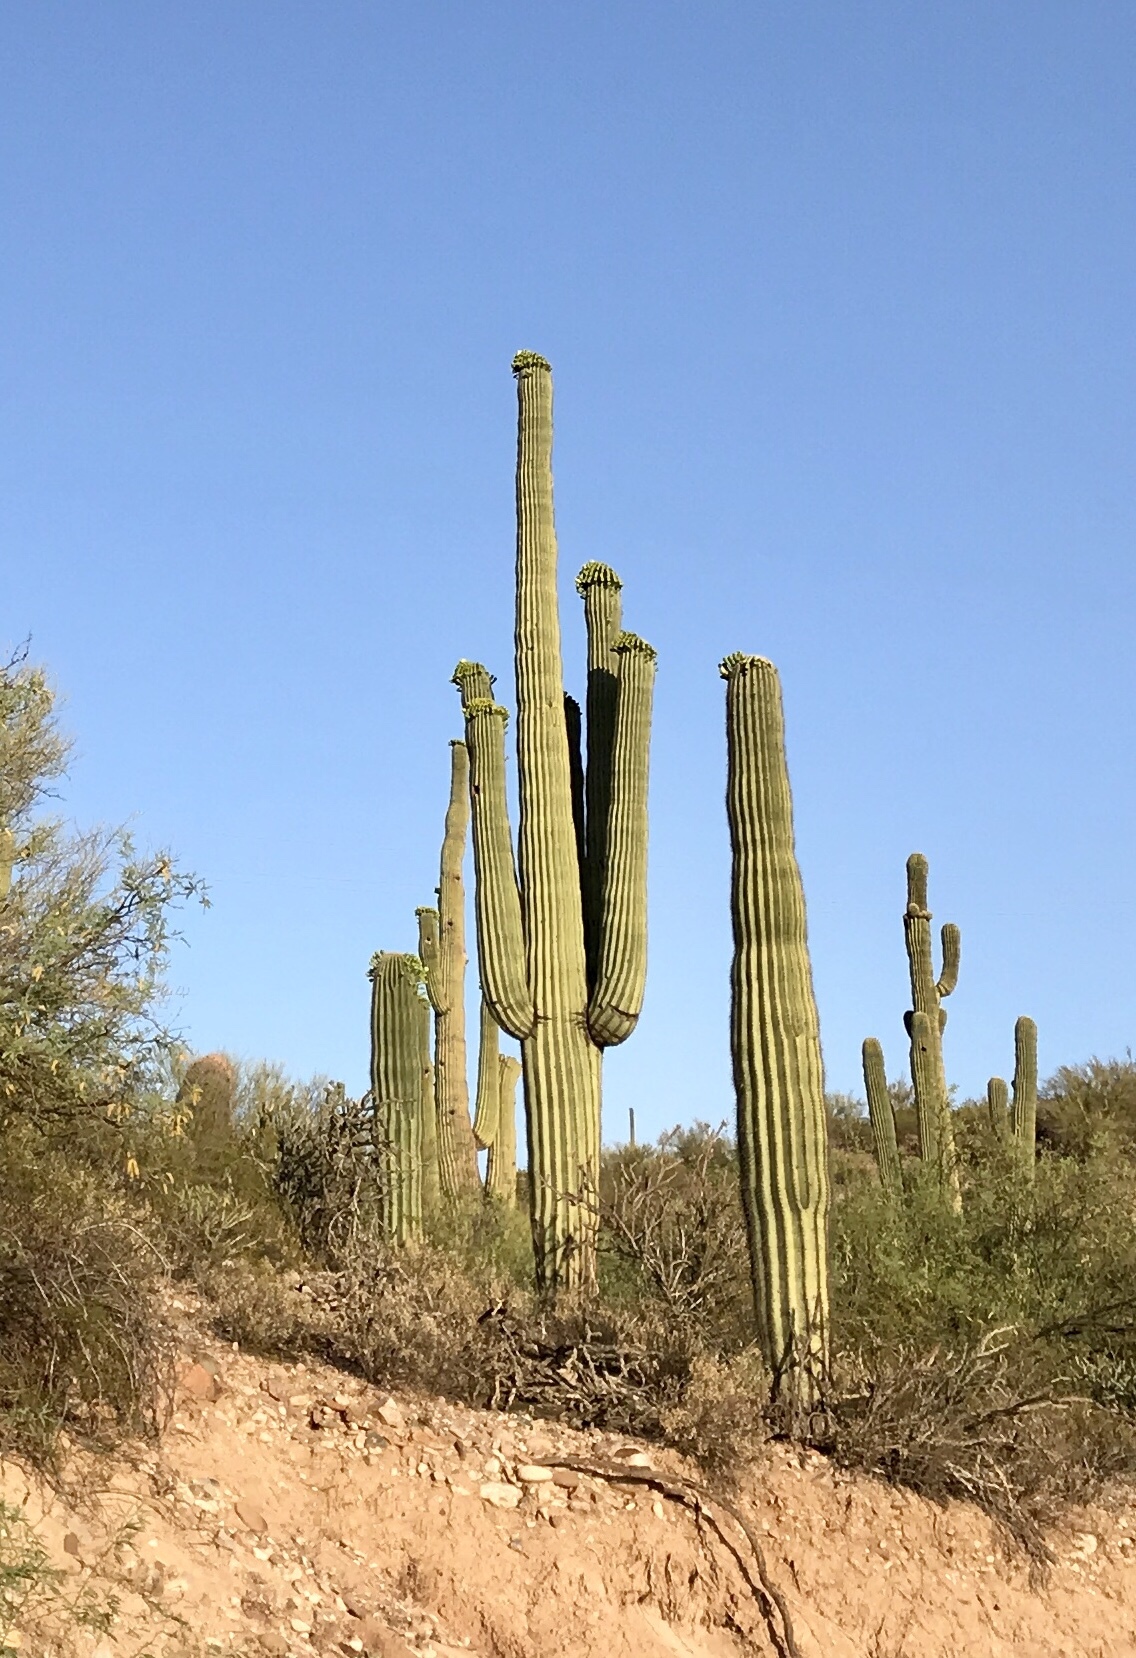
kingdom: Plantae
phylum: Tracheophyta
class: Magnoliopsida
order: Caryophyllales
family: Cactaceae
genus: Carnegiea
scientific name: Carnegiea gigantea
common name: Saguaro
